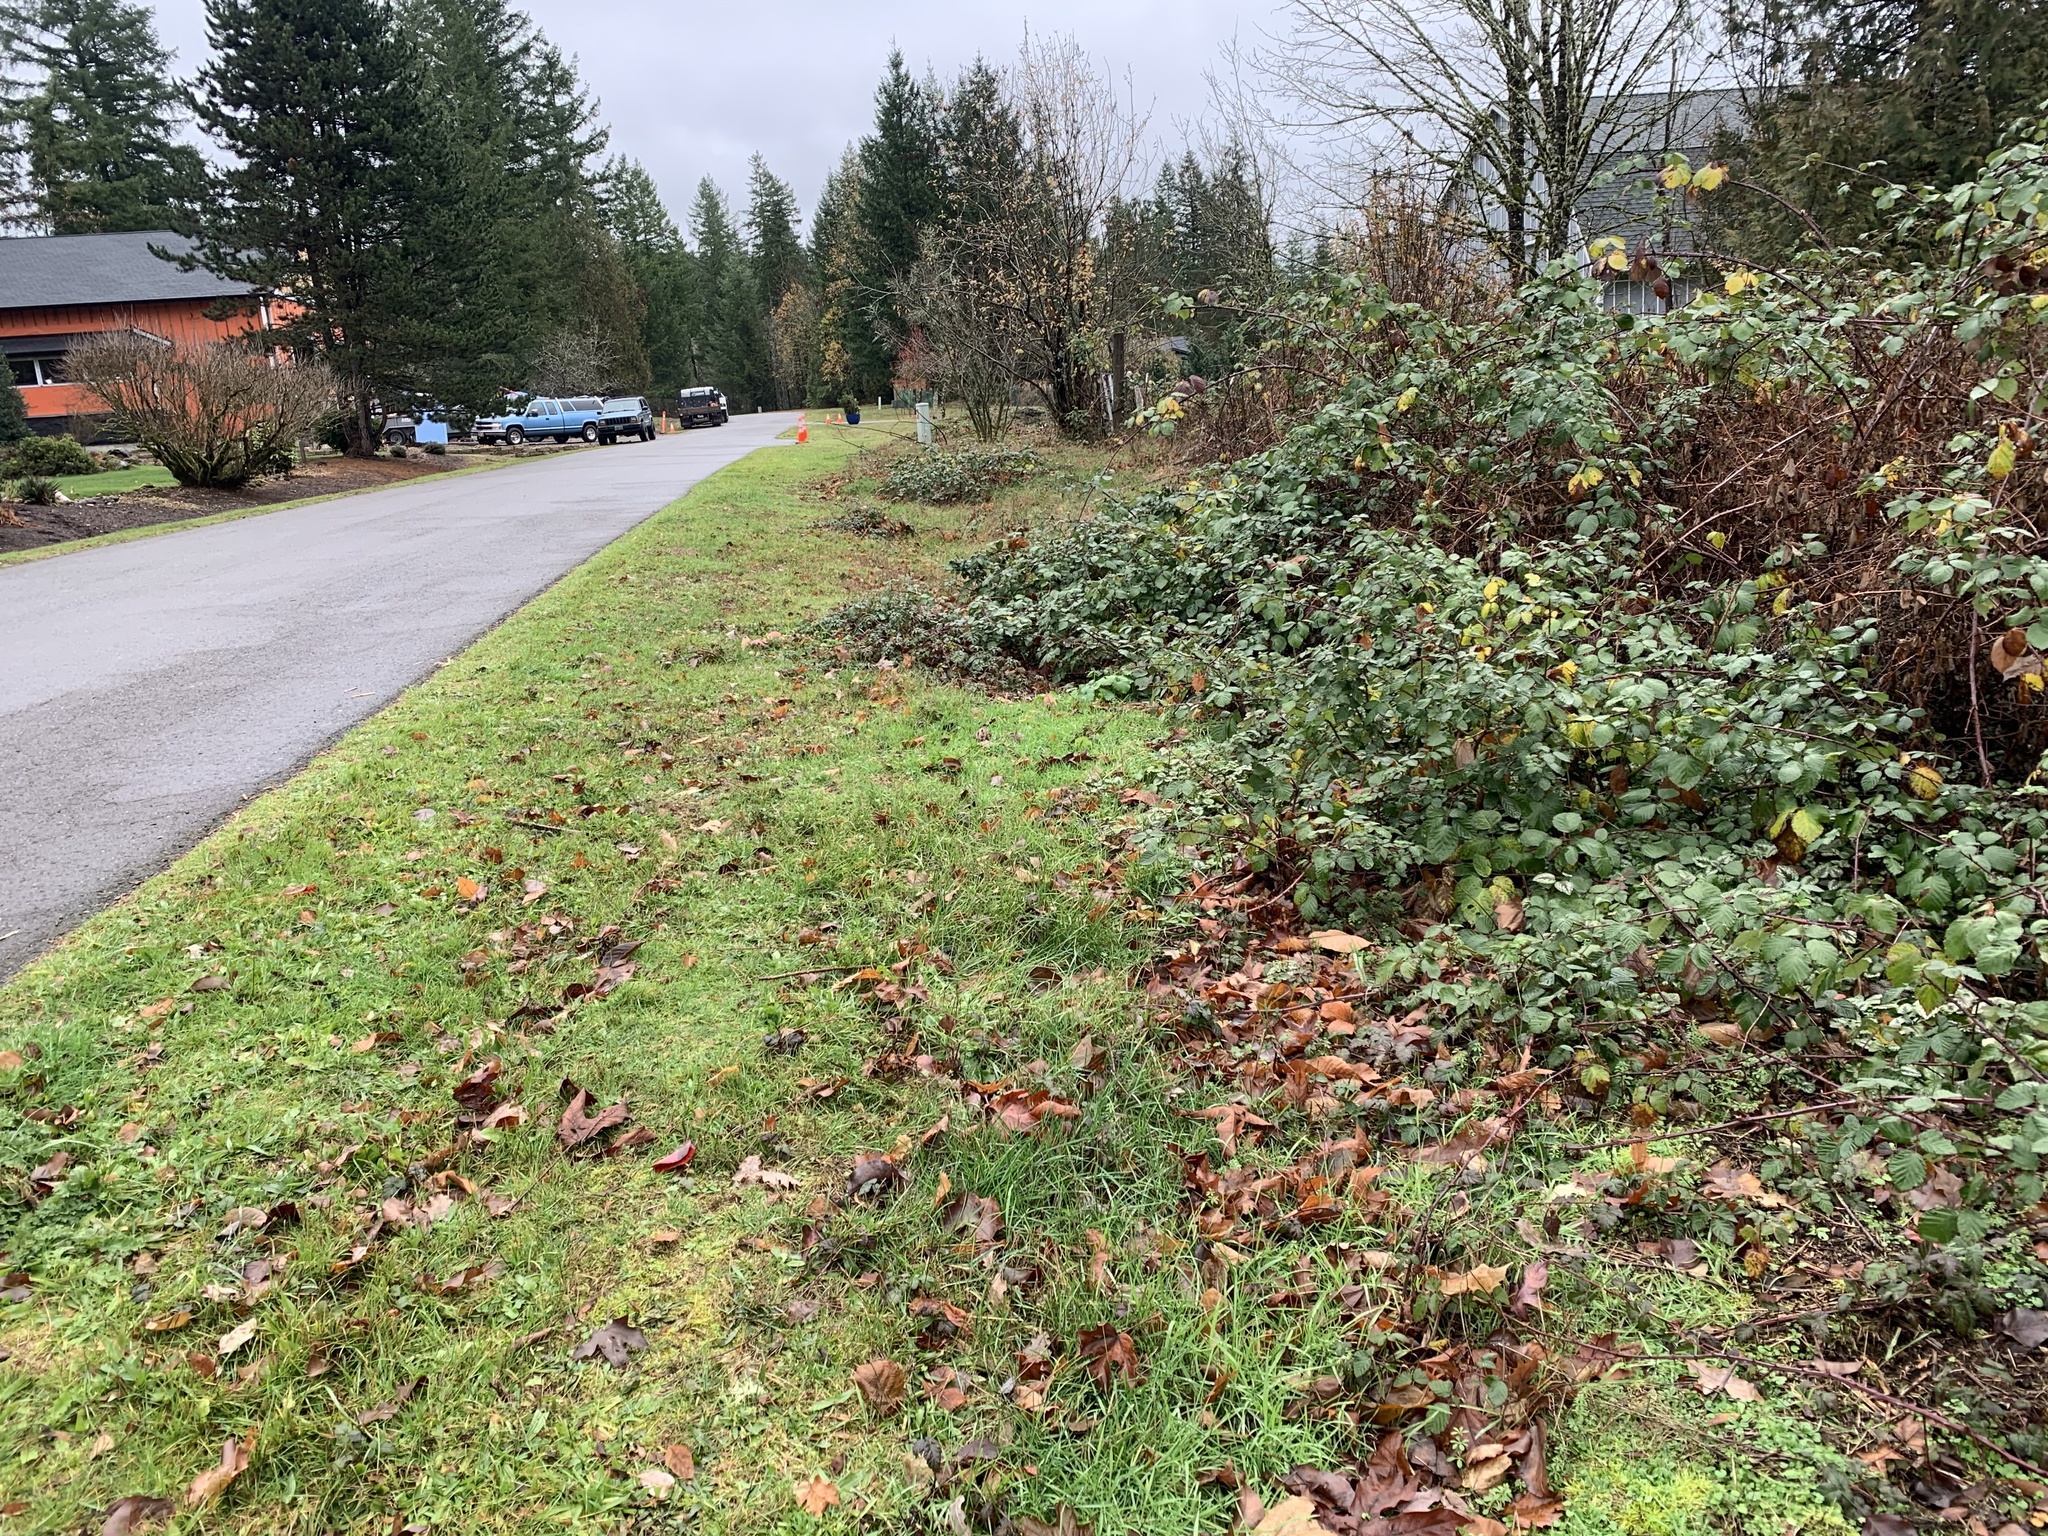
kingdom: Plantae
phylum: Tracheophyta
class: Magnoliopsida
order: Brassicales
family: Brassicaceae
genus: Alliaria
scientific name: Alliaria petiolata
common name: Garlic mustard
